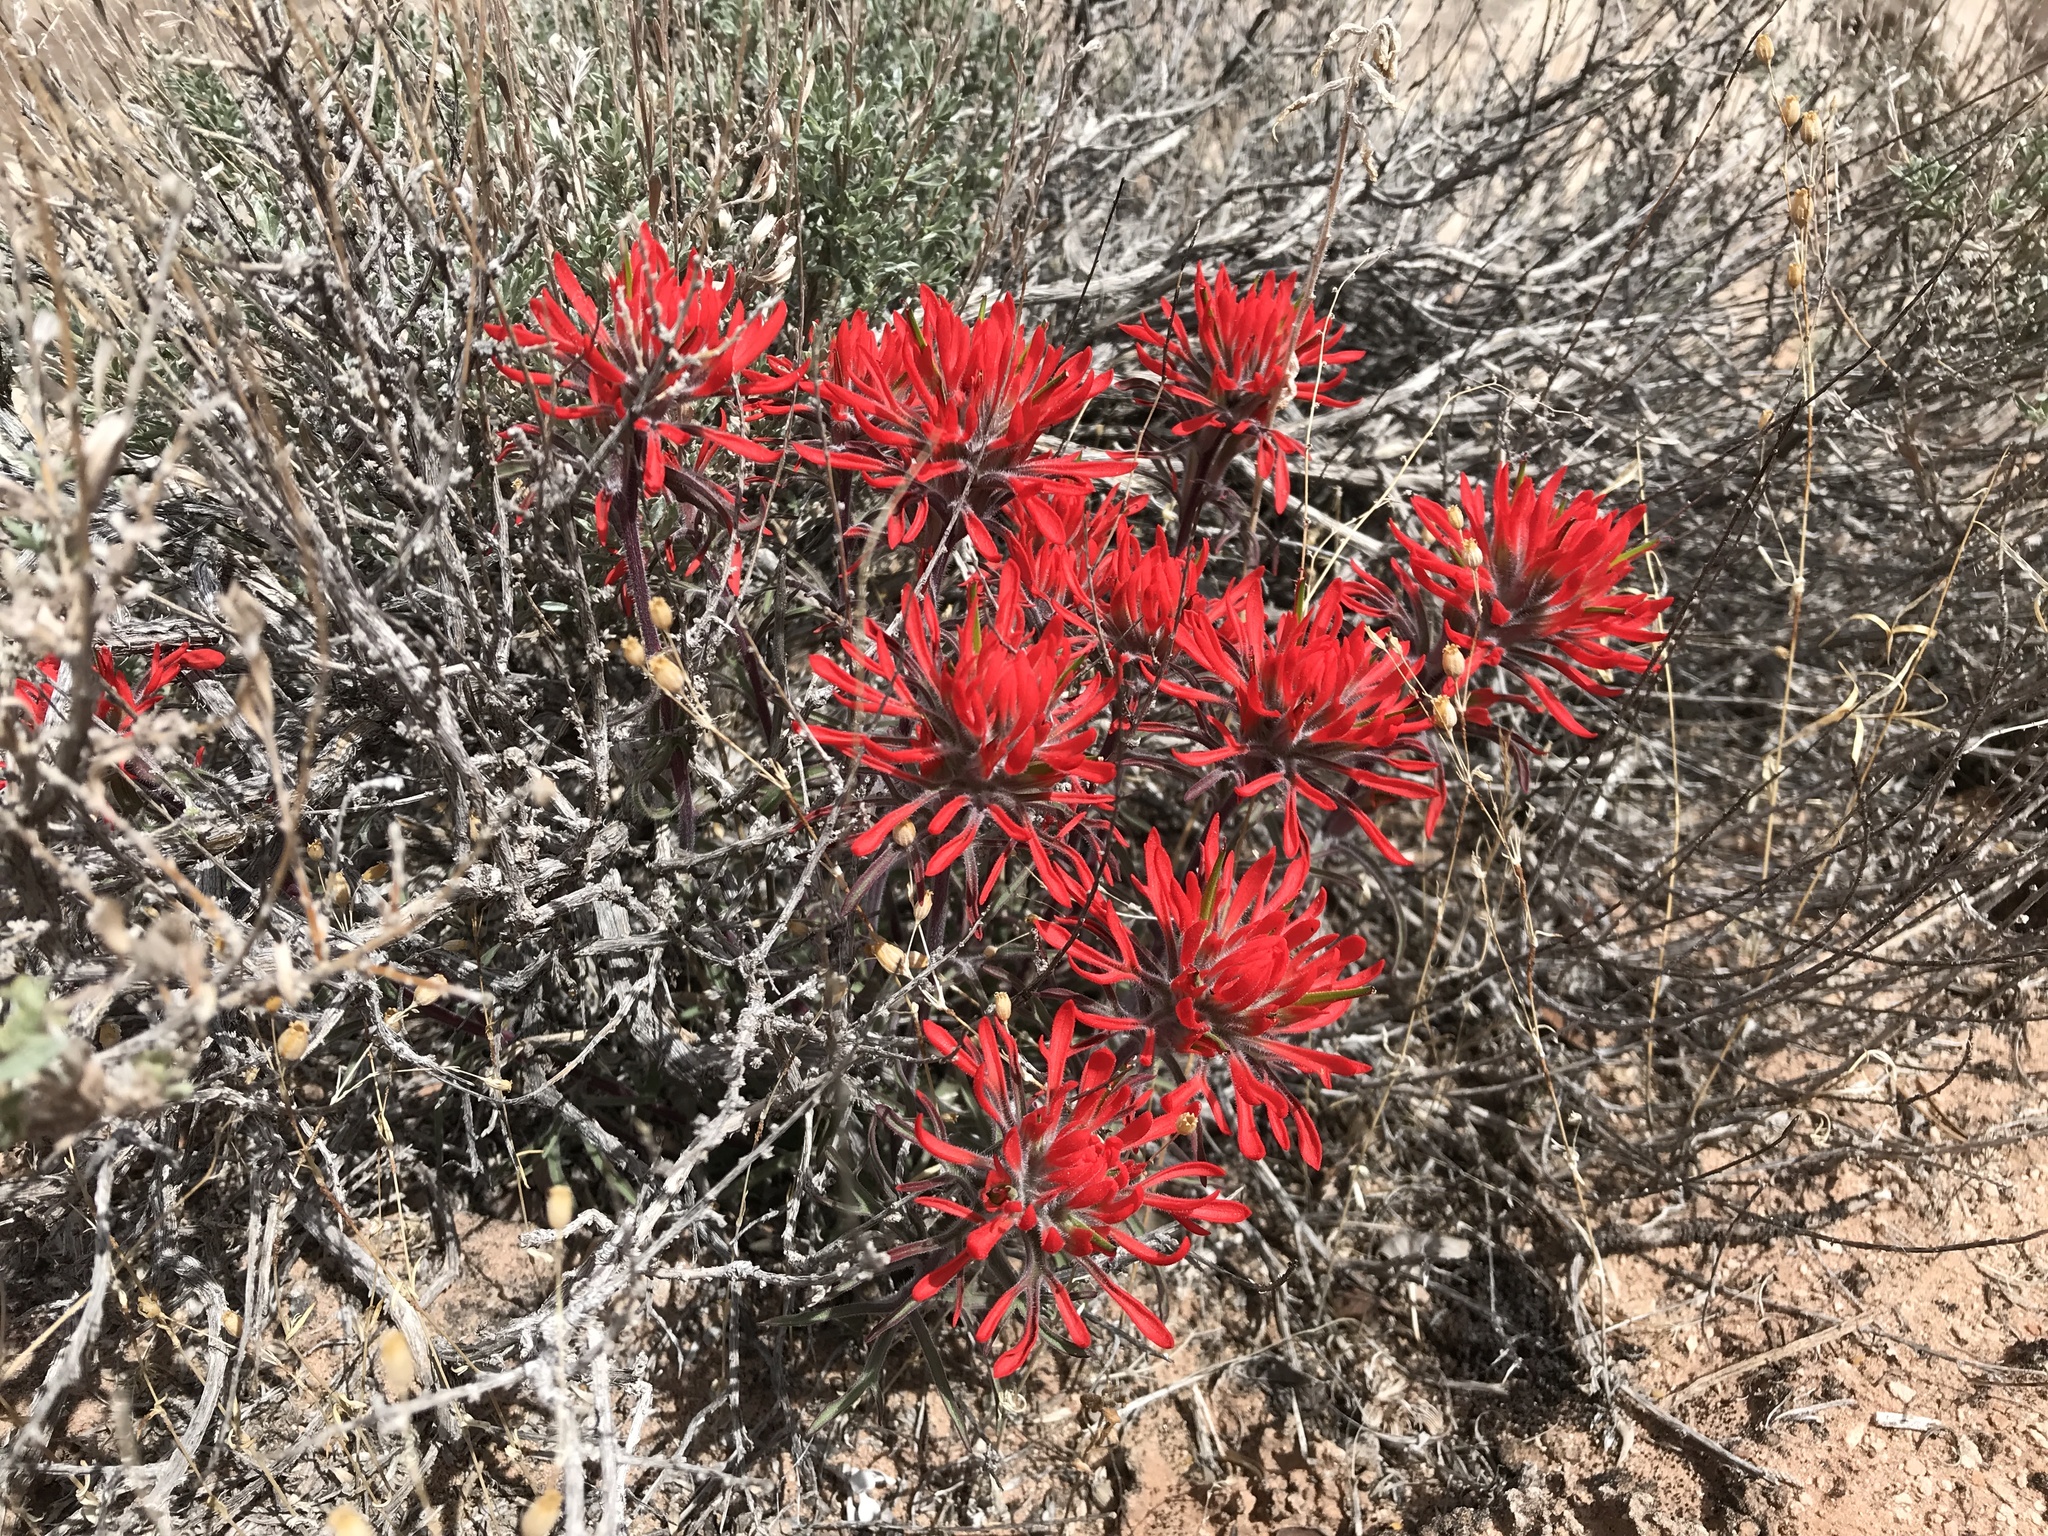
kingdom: Plantae
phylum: Tracheophyta
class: Magnoliopsida
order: Lamiales
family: Orobanchaceae
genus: Castilleja
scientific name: Castilleja chromosa
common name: Desert paintbrush
